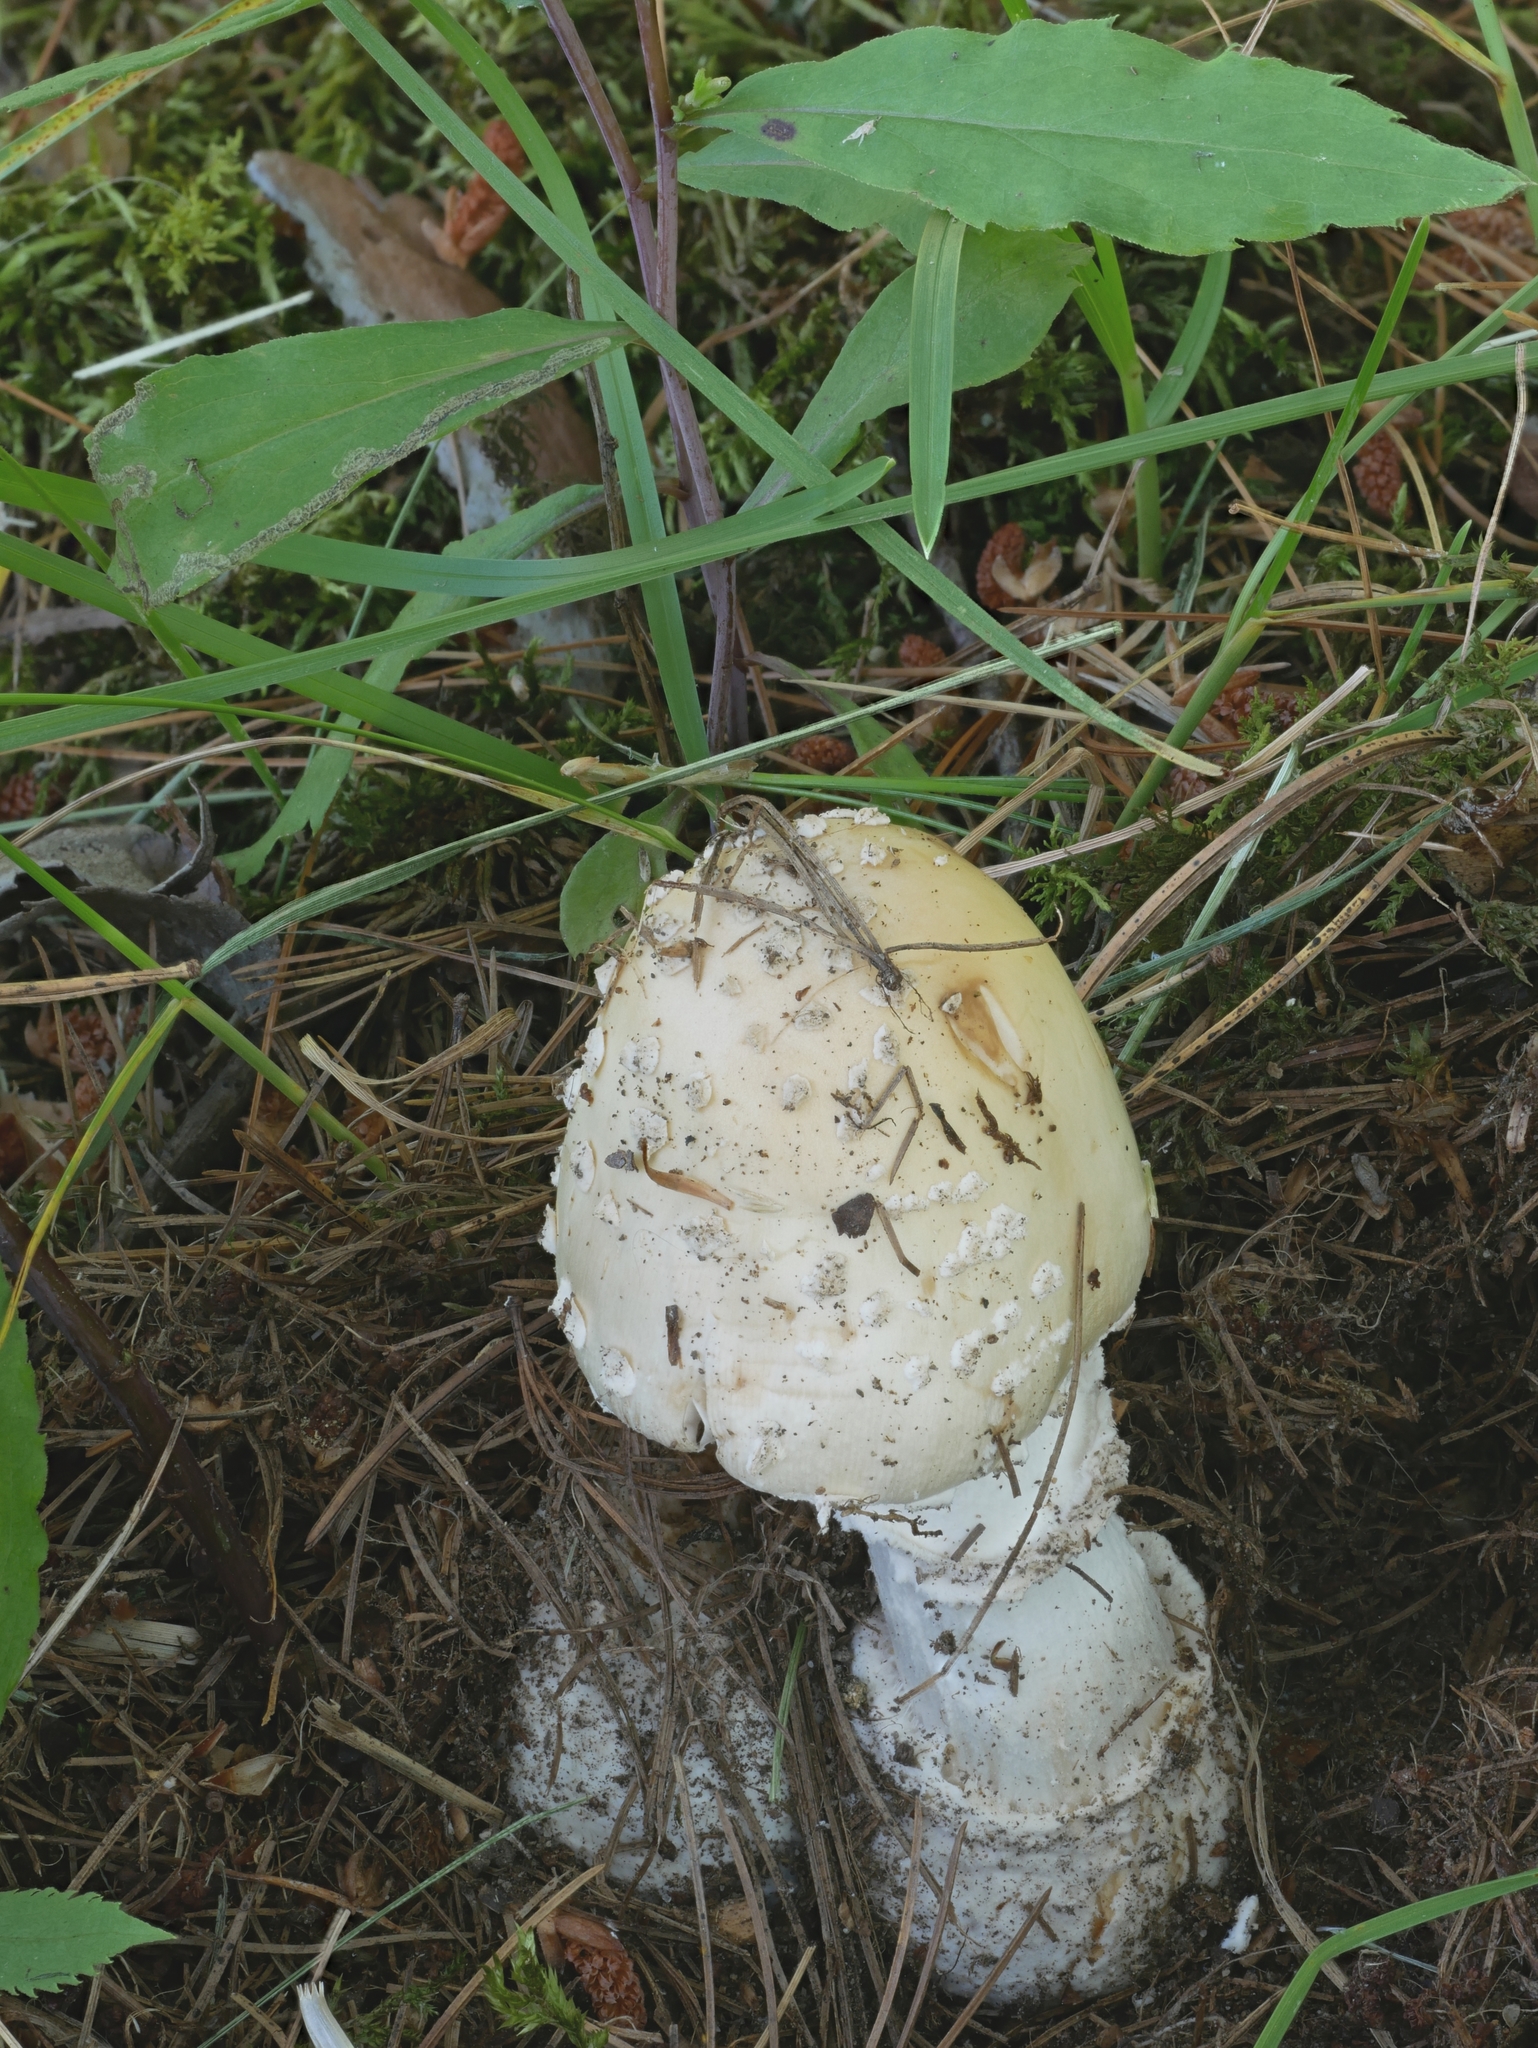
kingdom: Fungi
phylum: Basidiomycota
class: Agaricomycetes
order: Agaricales
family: Amanitaceae
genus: Amanita
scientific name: Amanita velatipes
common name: Great funnel-veil amanita
